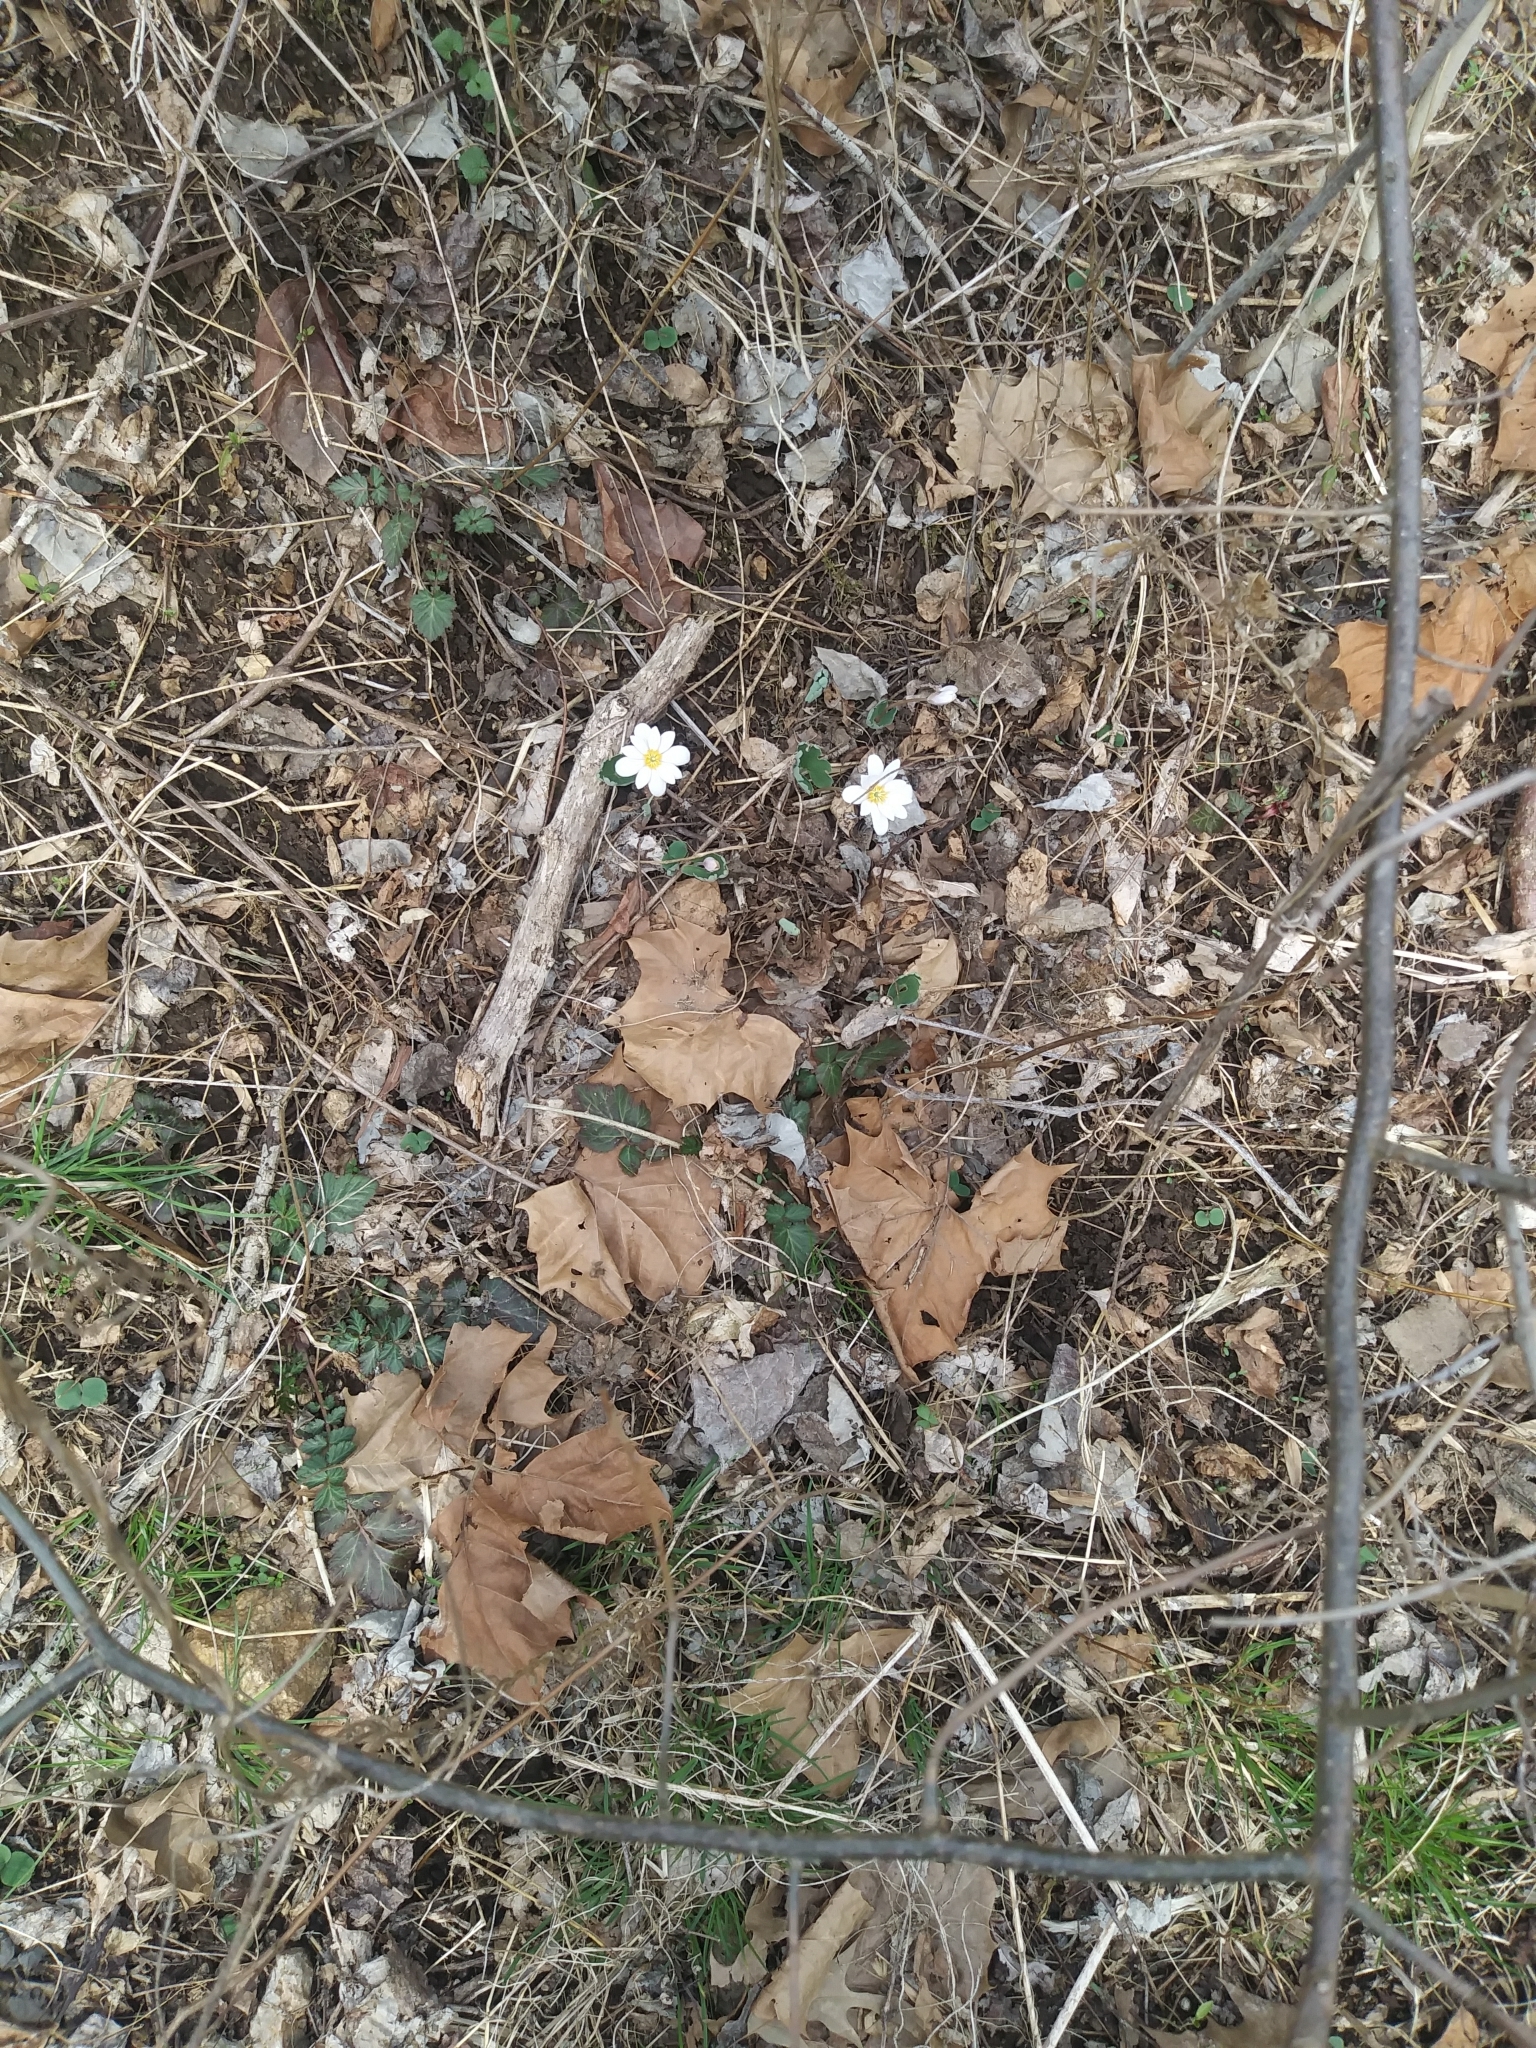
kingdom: Plantae
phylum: Tracheophyta
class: Magnoliopsida
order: Ranunculales
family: Papaveraceae
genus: Sanguinaria
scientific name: Sanguinaria canadensis
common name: Bloodroot
